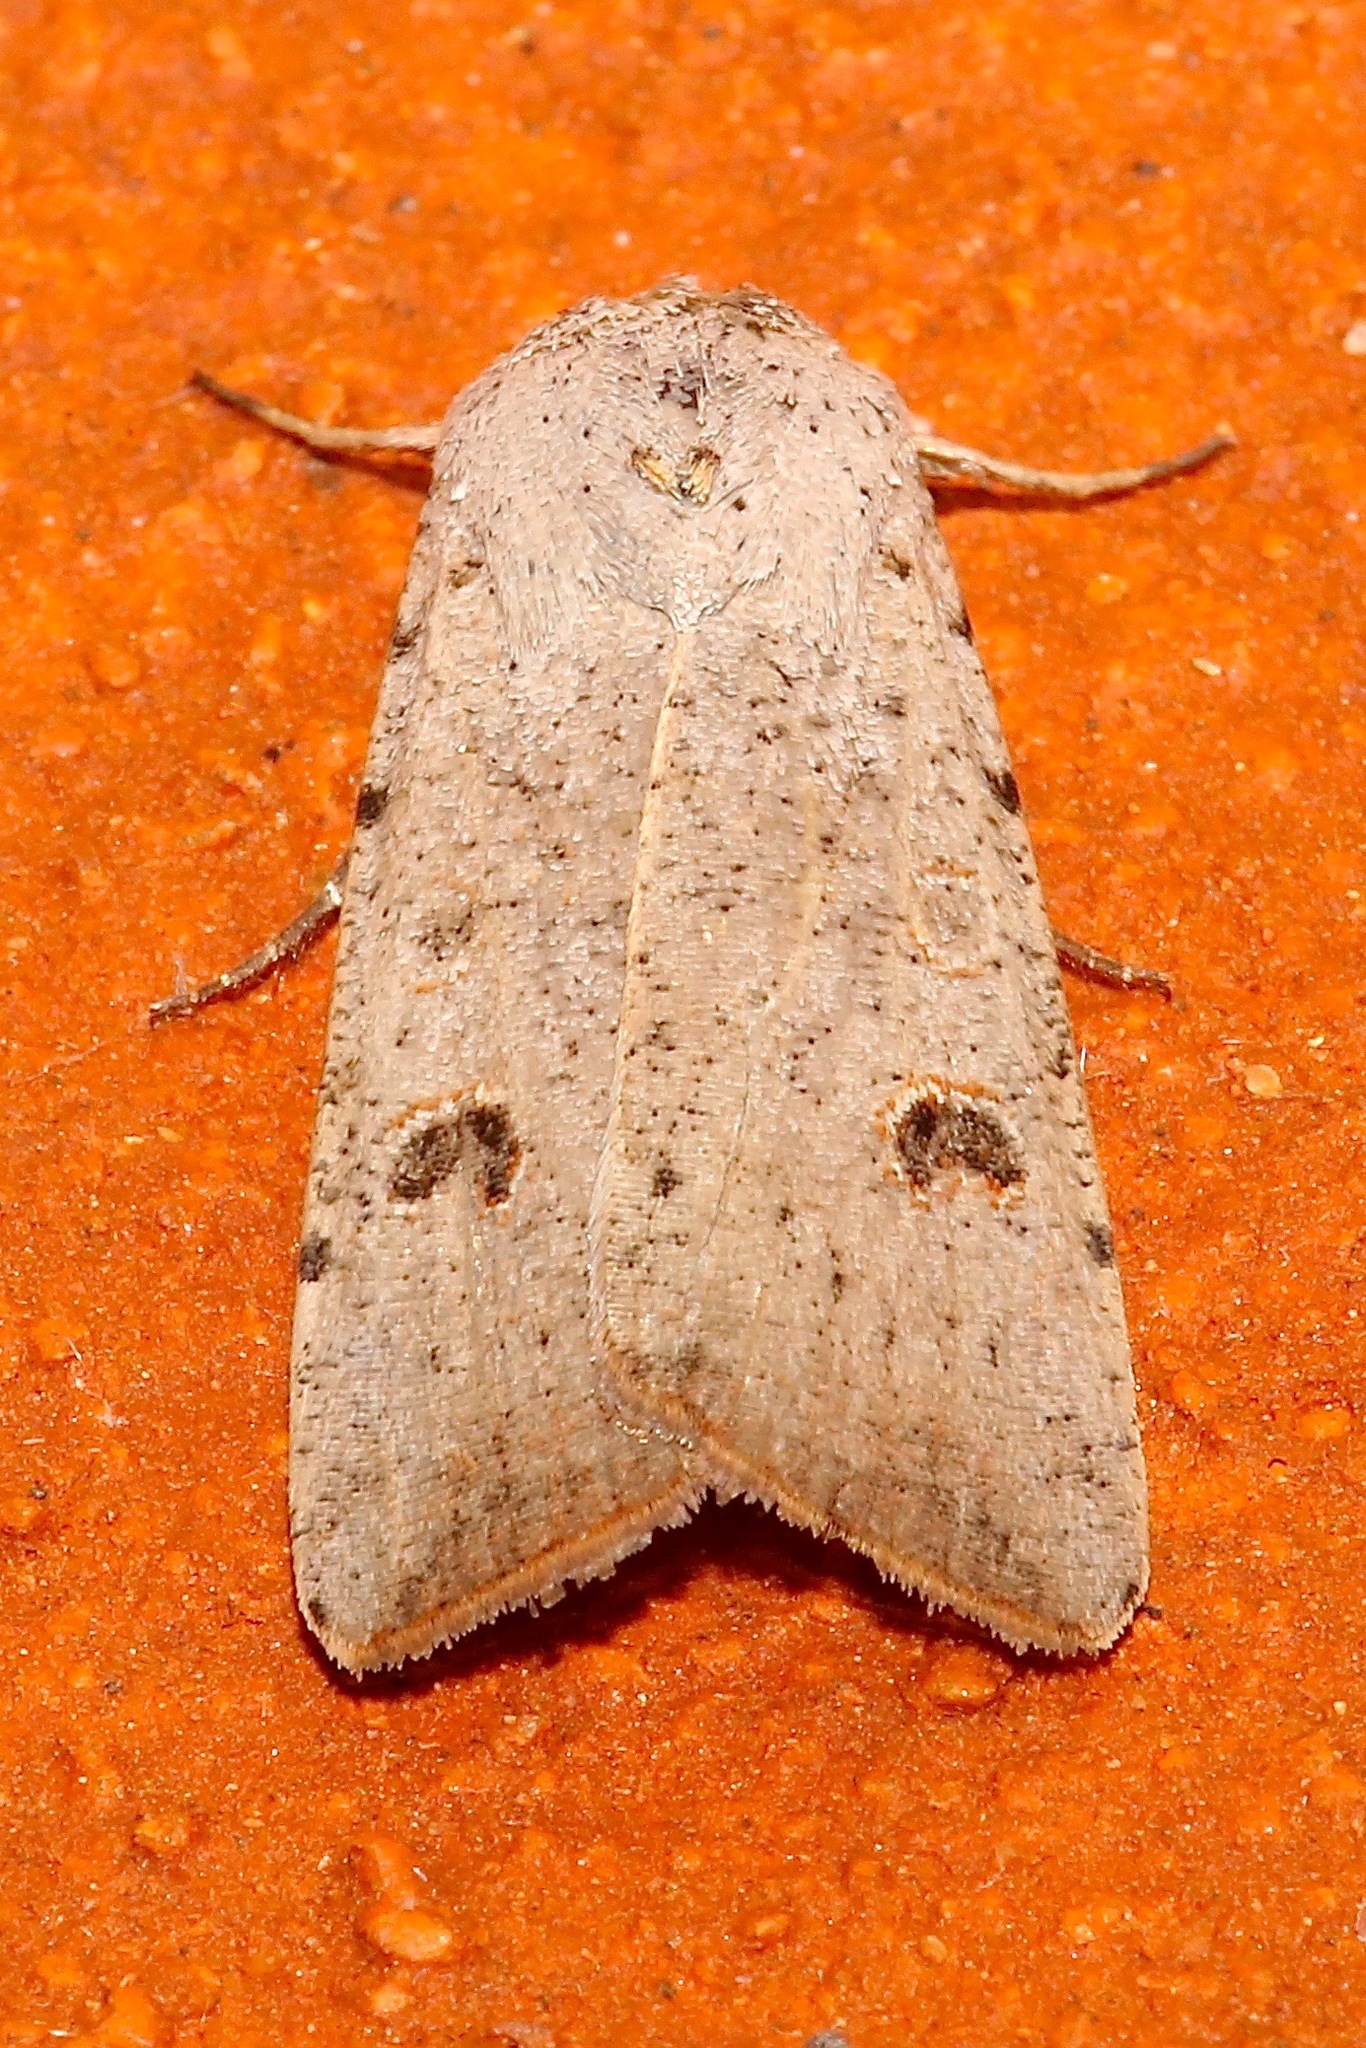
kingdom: Animalia
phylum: Arthropoda
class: Insecta
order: Lepidoptera
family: Noctuidae
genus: Anicla
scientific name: Anicla infecta
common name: Green cutworm
